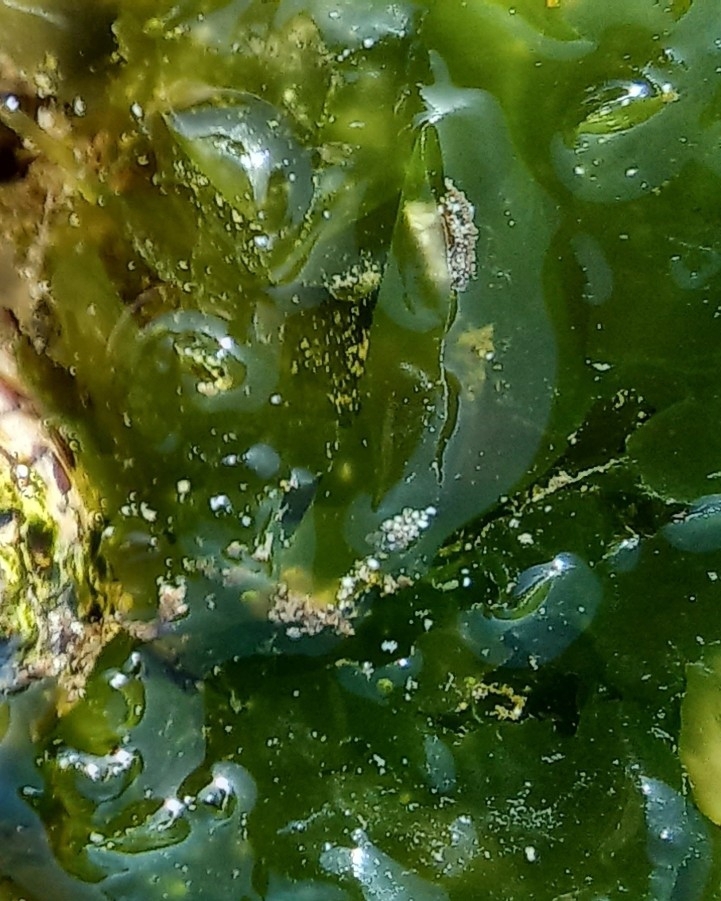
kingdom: Plantae
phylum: Chlorophyta
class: Ulvophyceae
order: Ulvales
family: Ulvaceae
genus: Ulva
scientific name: Ulva rigida
